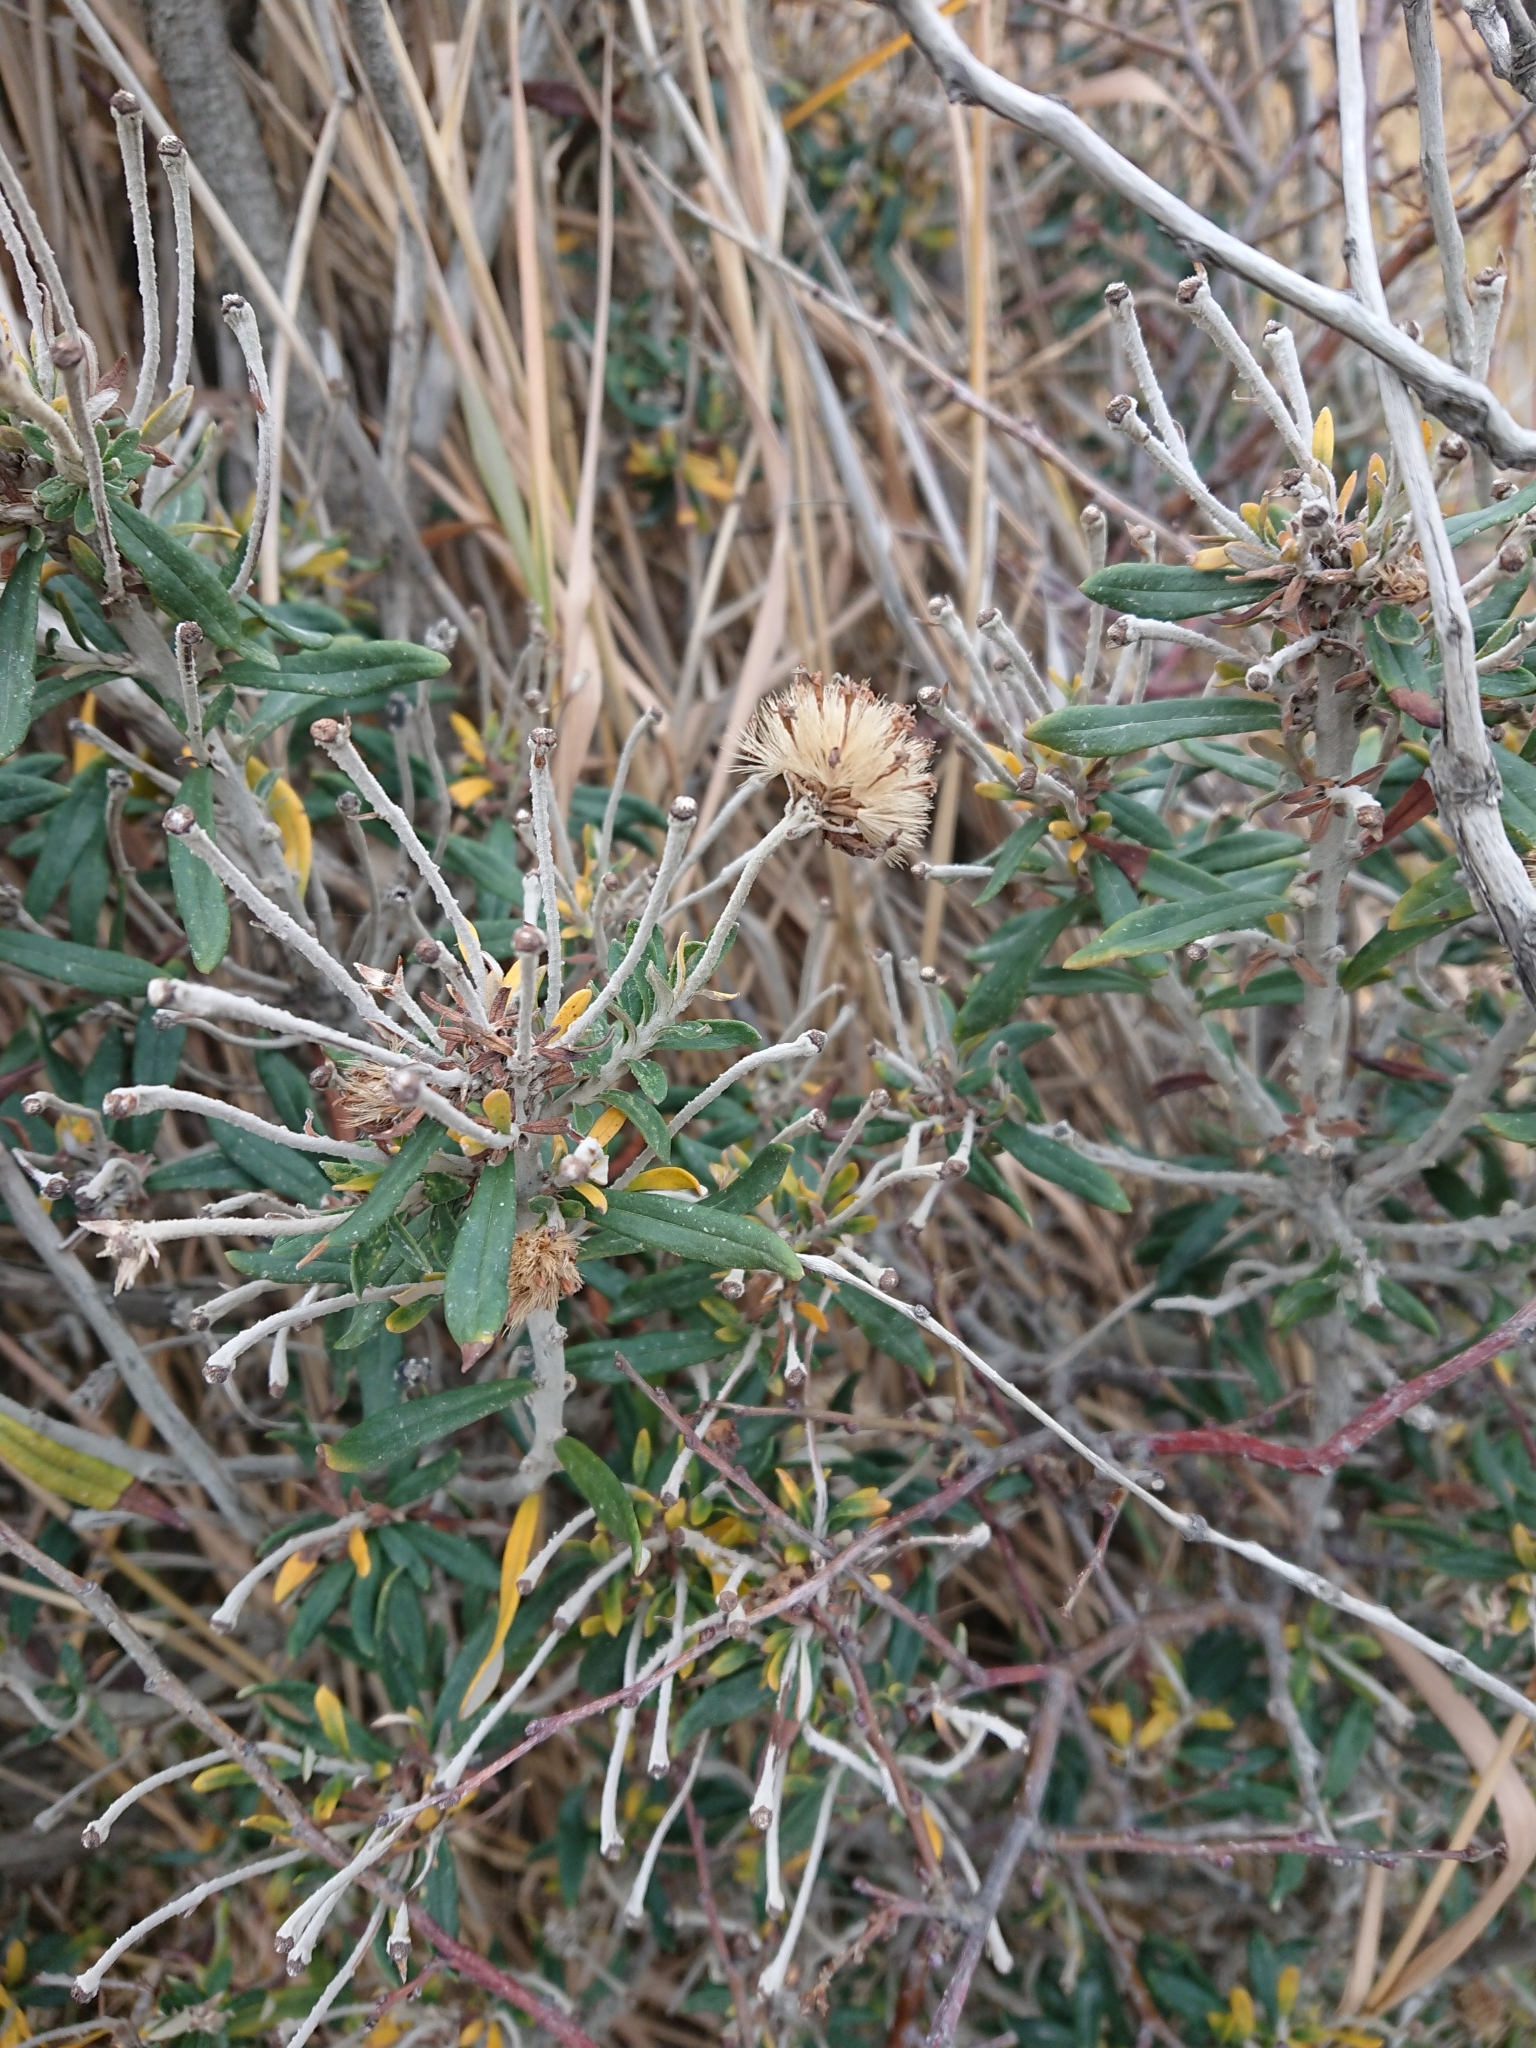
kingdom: Plantae
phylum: Tracheophyta
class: Magnoliopsida
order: Asterales
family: Asteraceae
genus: Chiliotrichum
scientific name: Chiliotrichum diffusum
